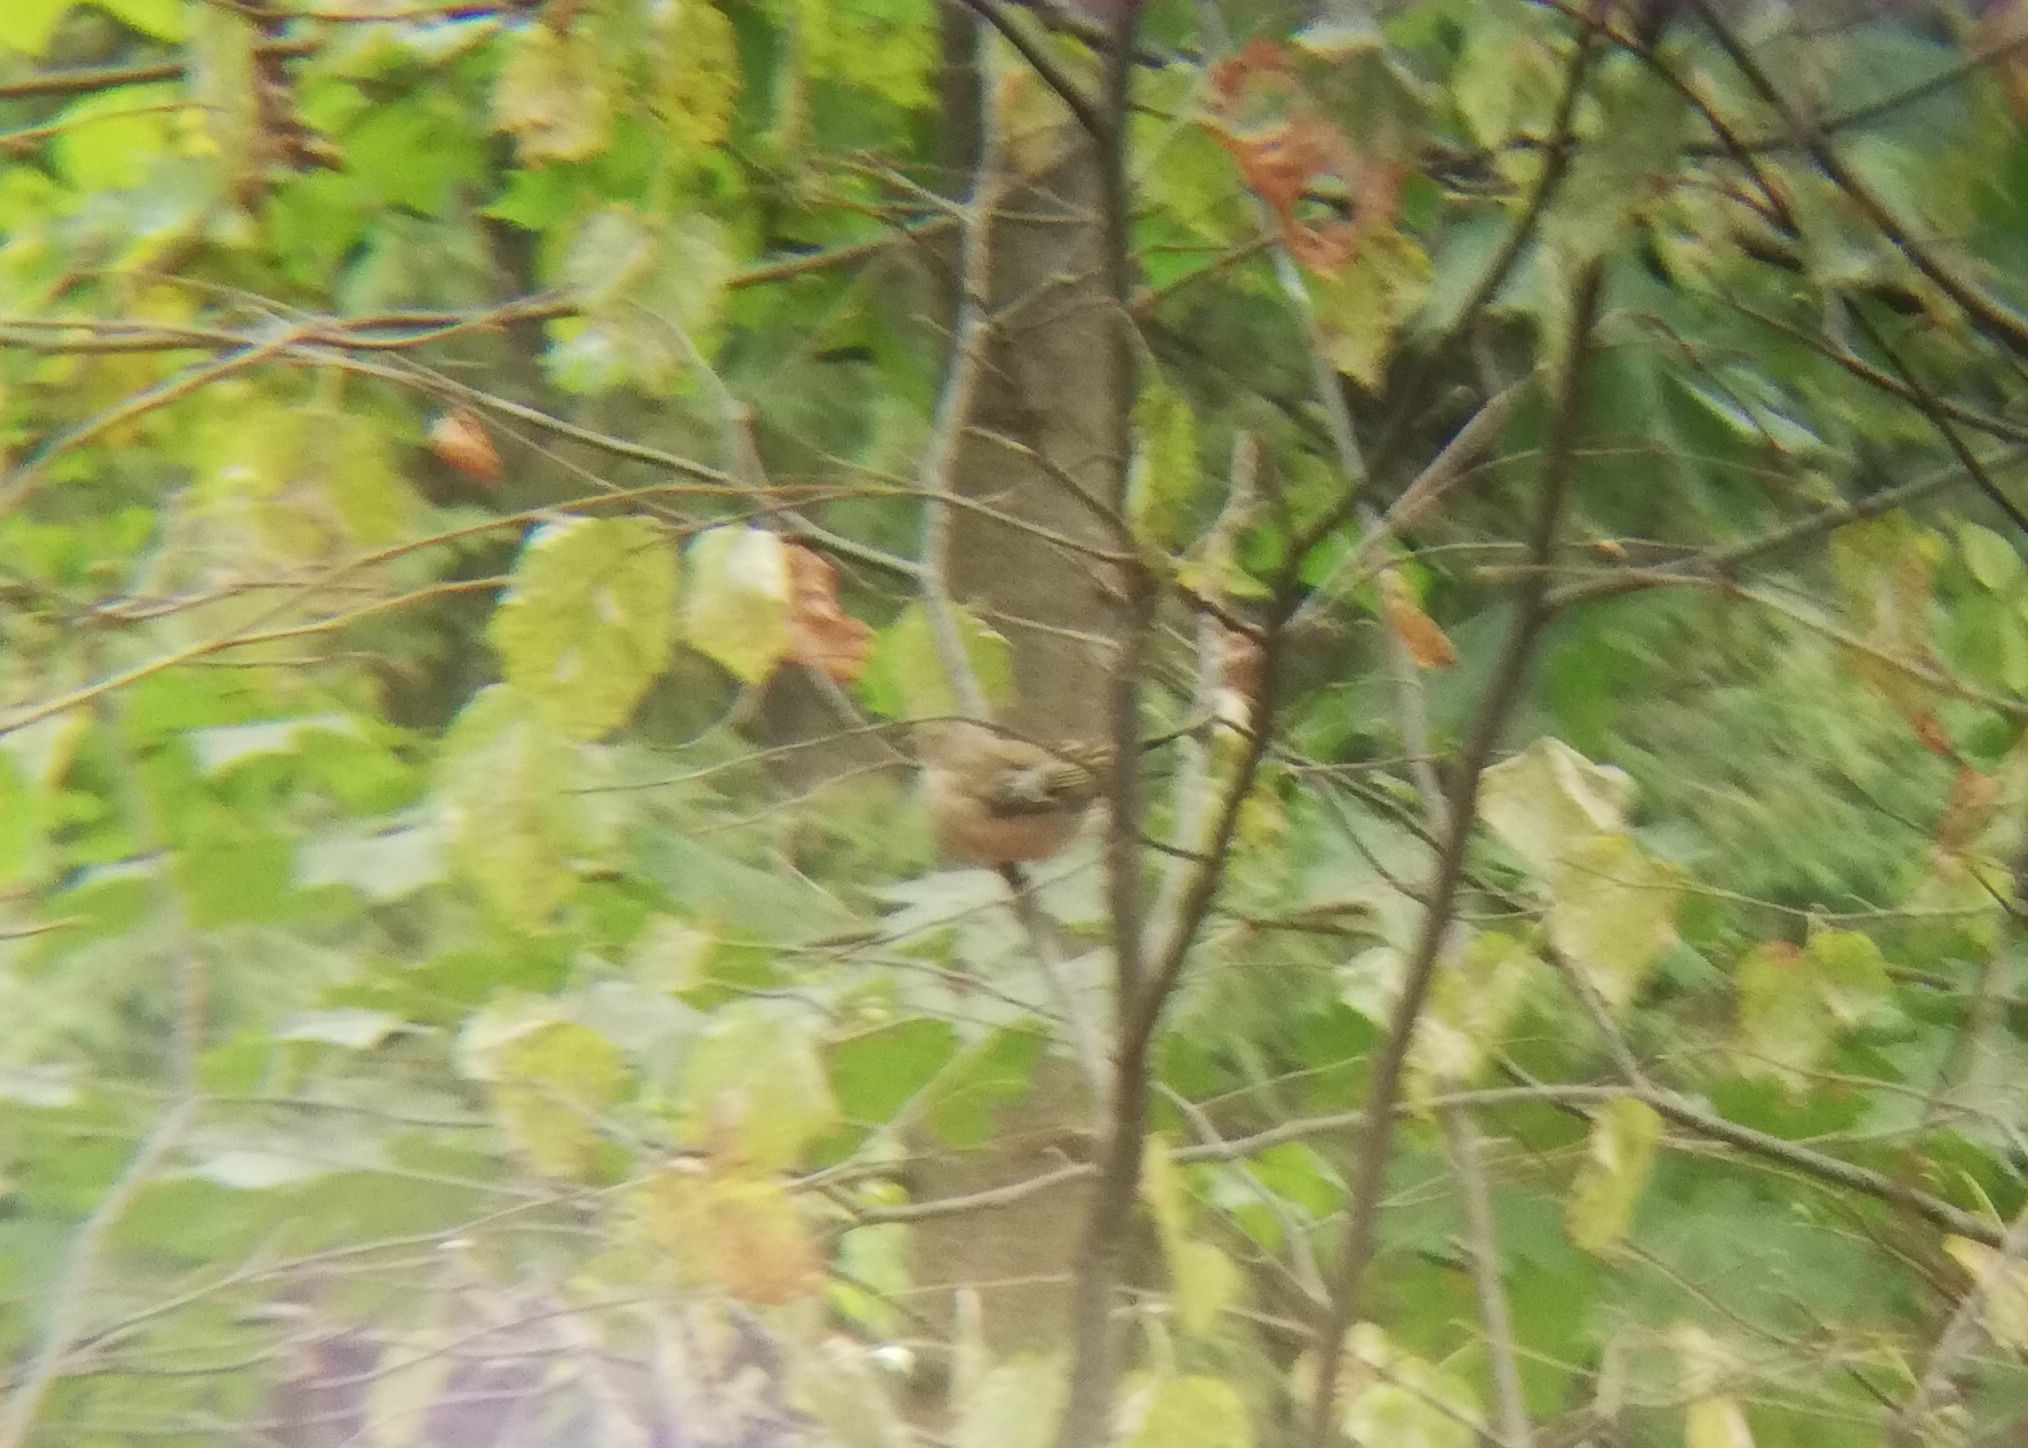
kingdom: Animalia
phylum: Chordata
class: Aves
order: Passeriformes
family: Fringillidae
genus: Fringilla
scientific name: Fringilla coelebs
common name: Common chaffinch
